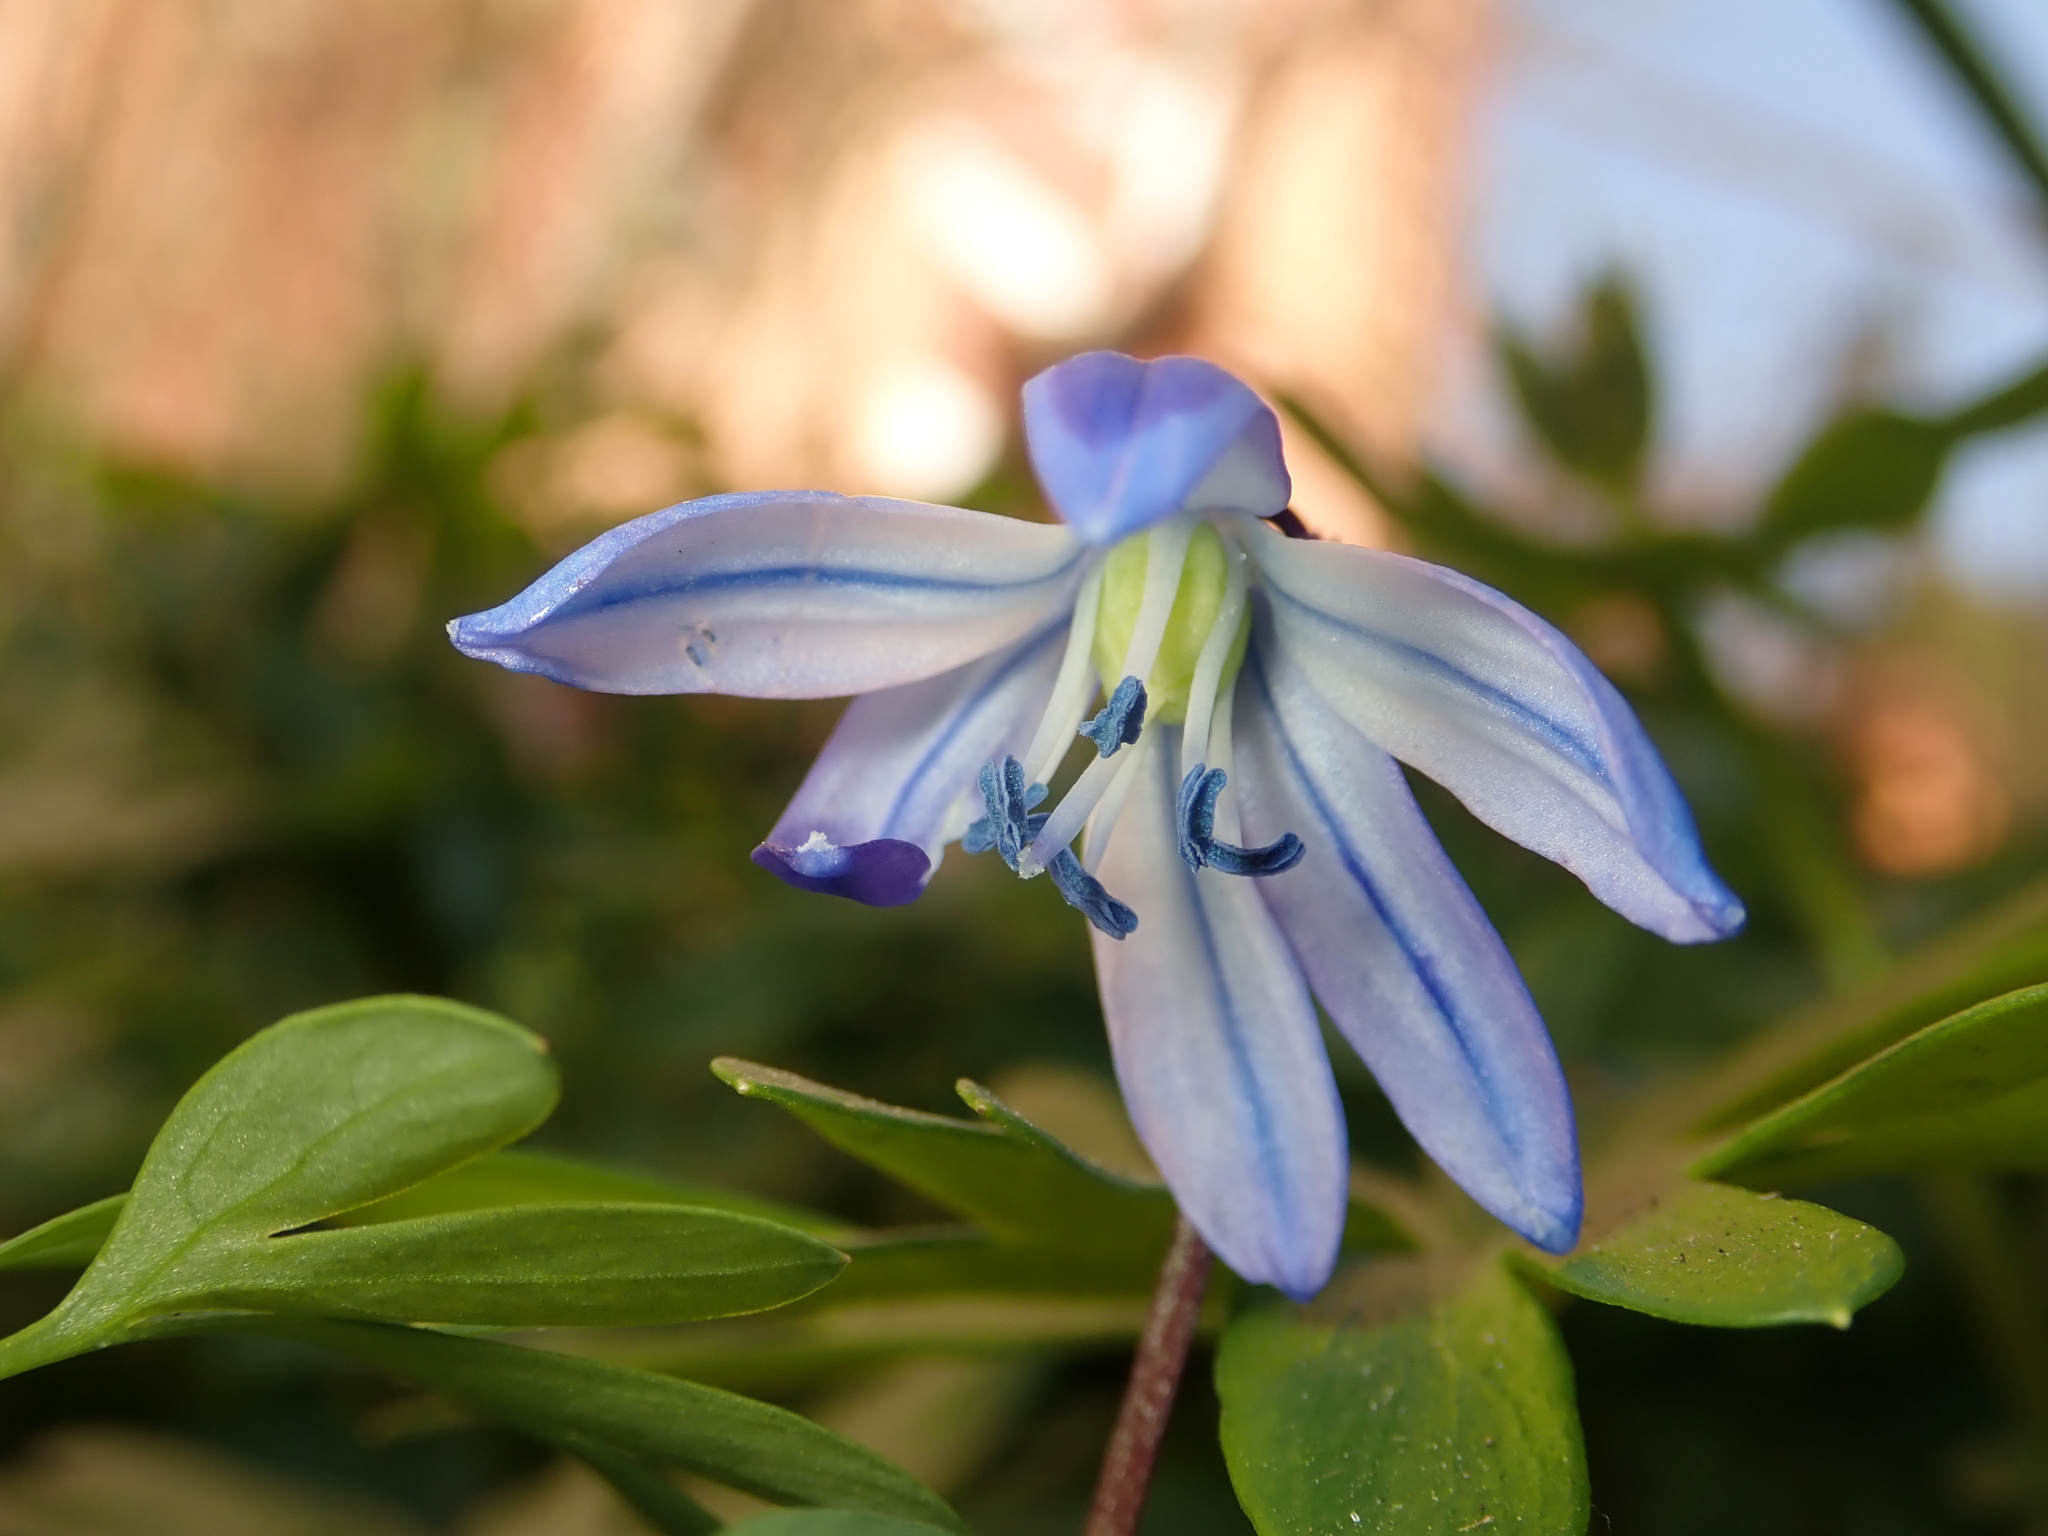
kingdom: Plantae
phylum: Tracheophyta
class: Liliopsida
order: Asparagales
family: Asparagaceae
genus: Scilla
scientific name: Scilla siberica
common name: Siberian squill
